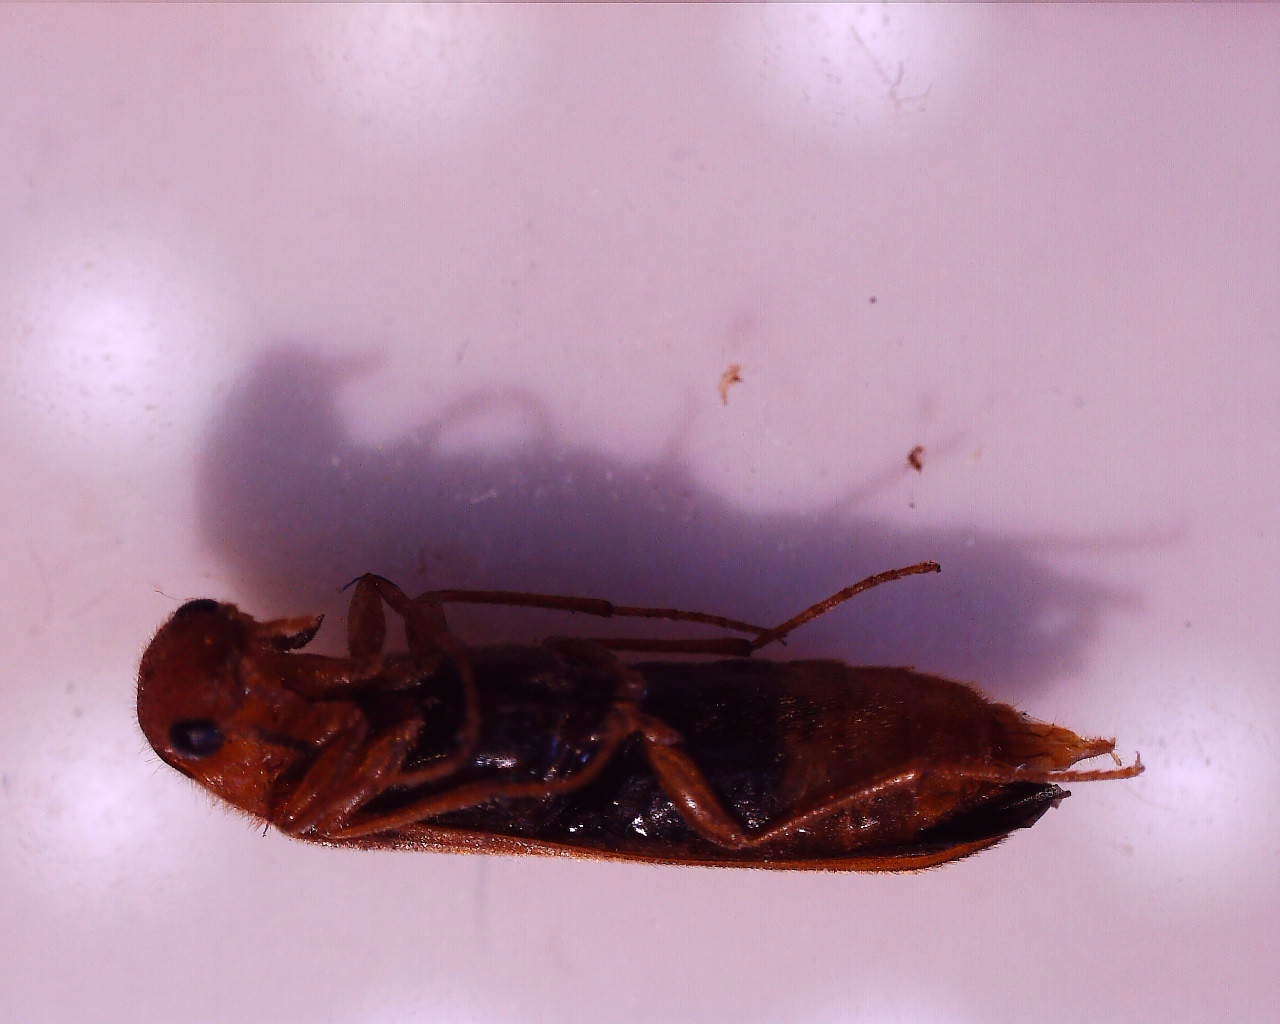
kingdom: Animalia
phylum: Arthropoda
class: Insecta
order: Coleoptera
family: Lymexylidae
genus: Hylecoetus
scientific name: Hylecoetus dermestoides
